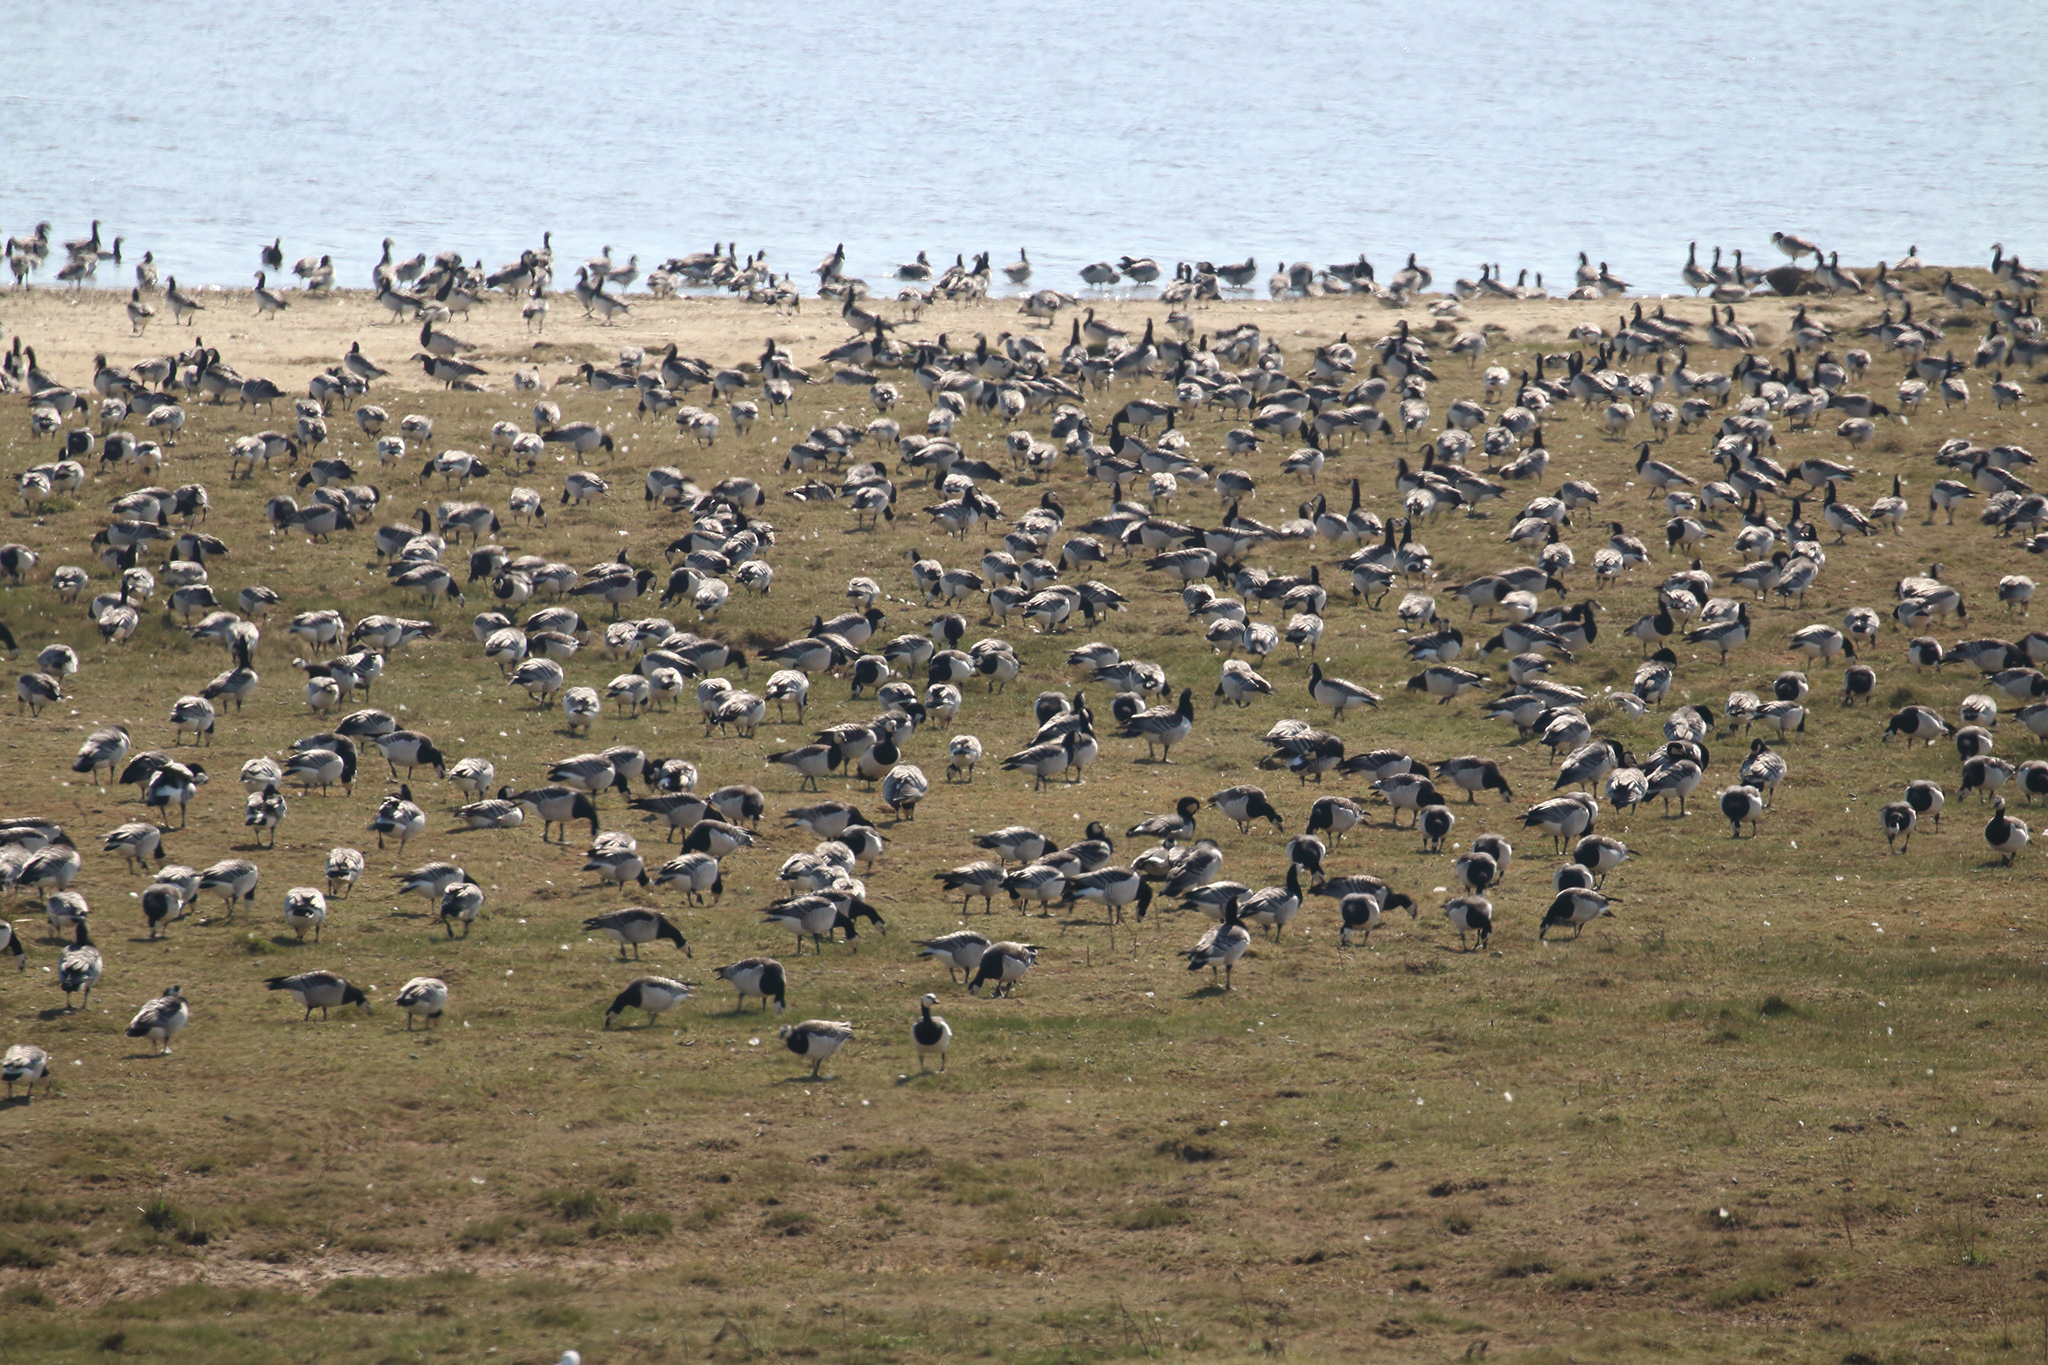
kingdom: Animalia
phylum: Chordata
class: Aves
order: Anseriformes
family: Anatidae
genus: Branta
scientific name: Branta leucopsis
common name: Barnacle goose
